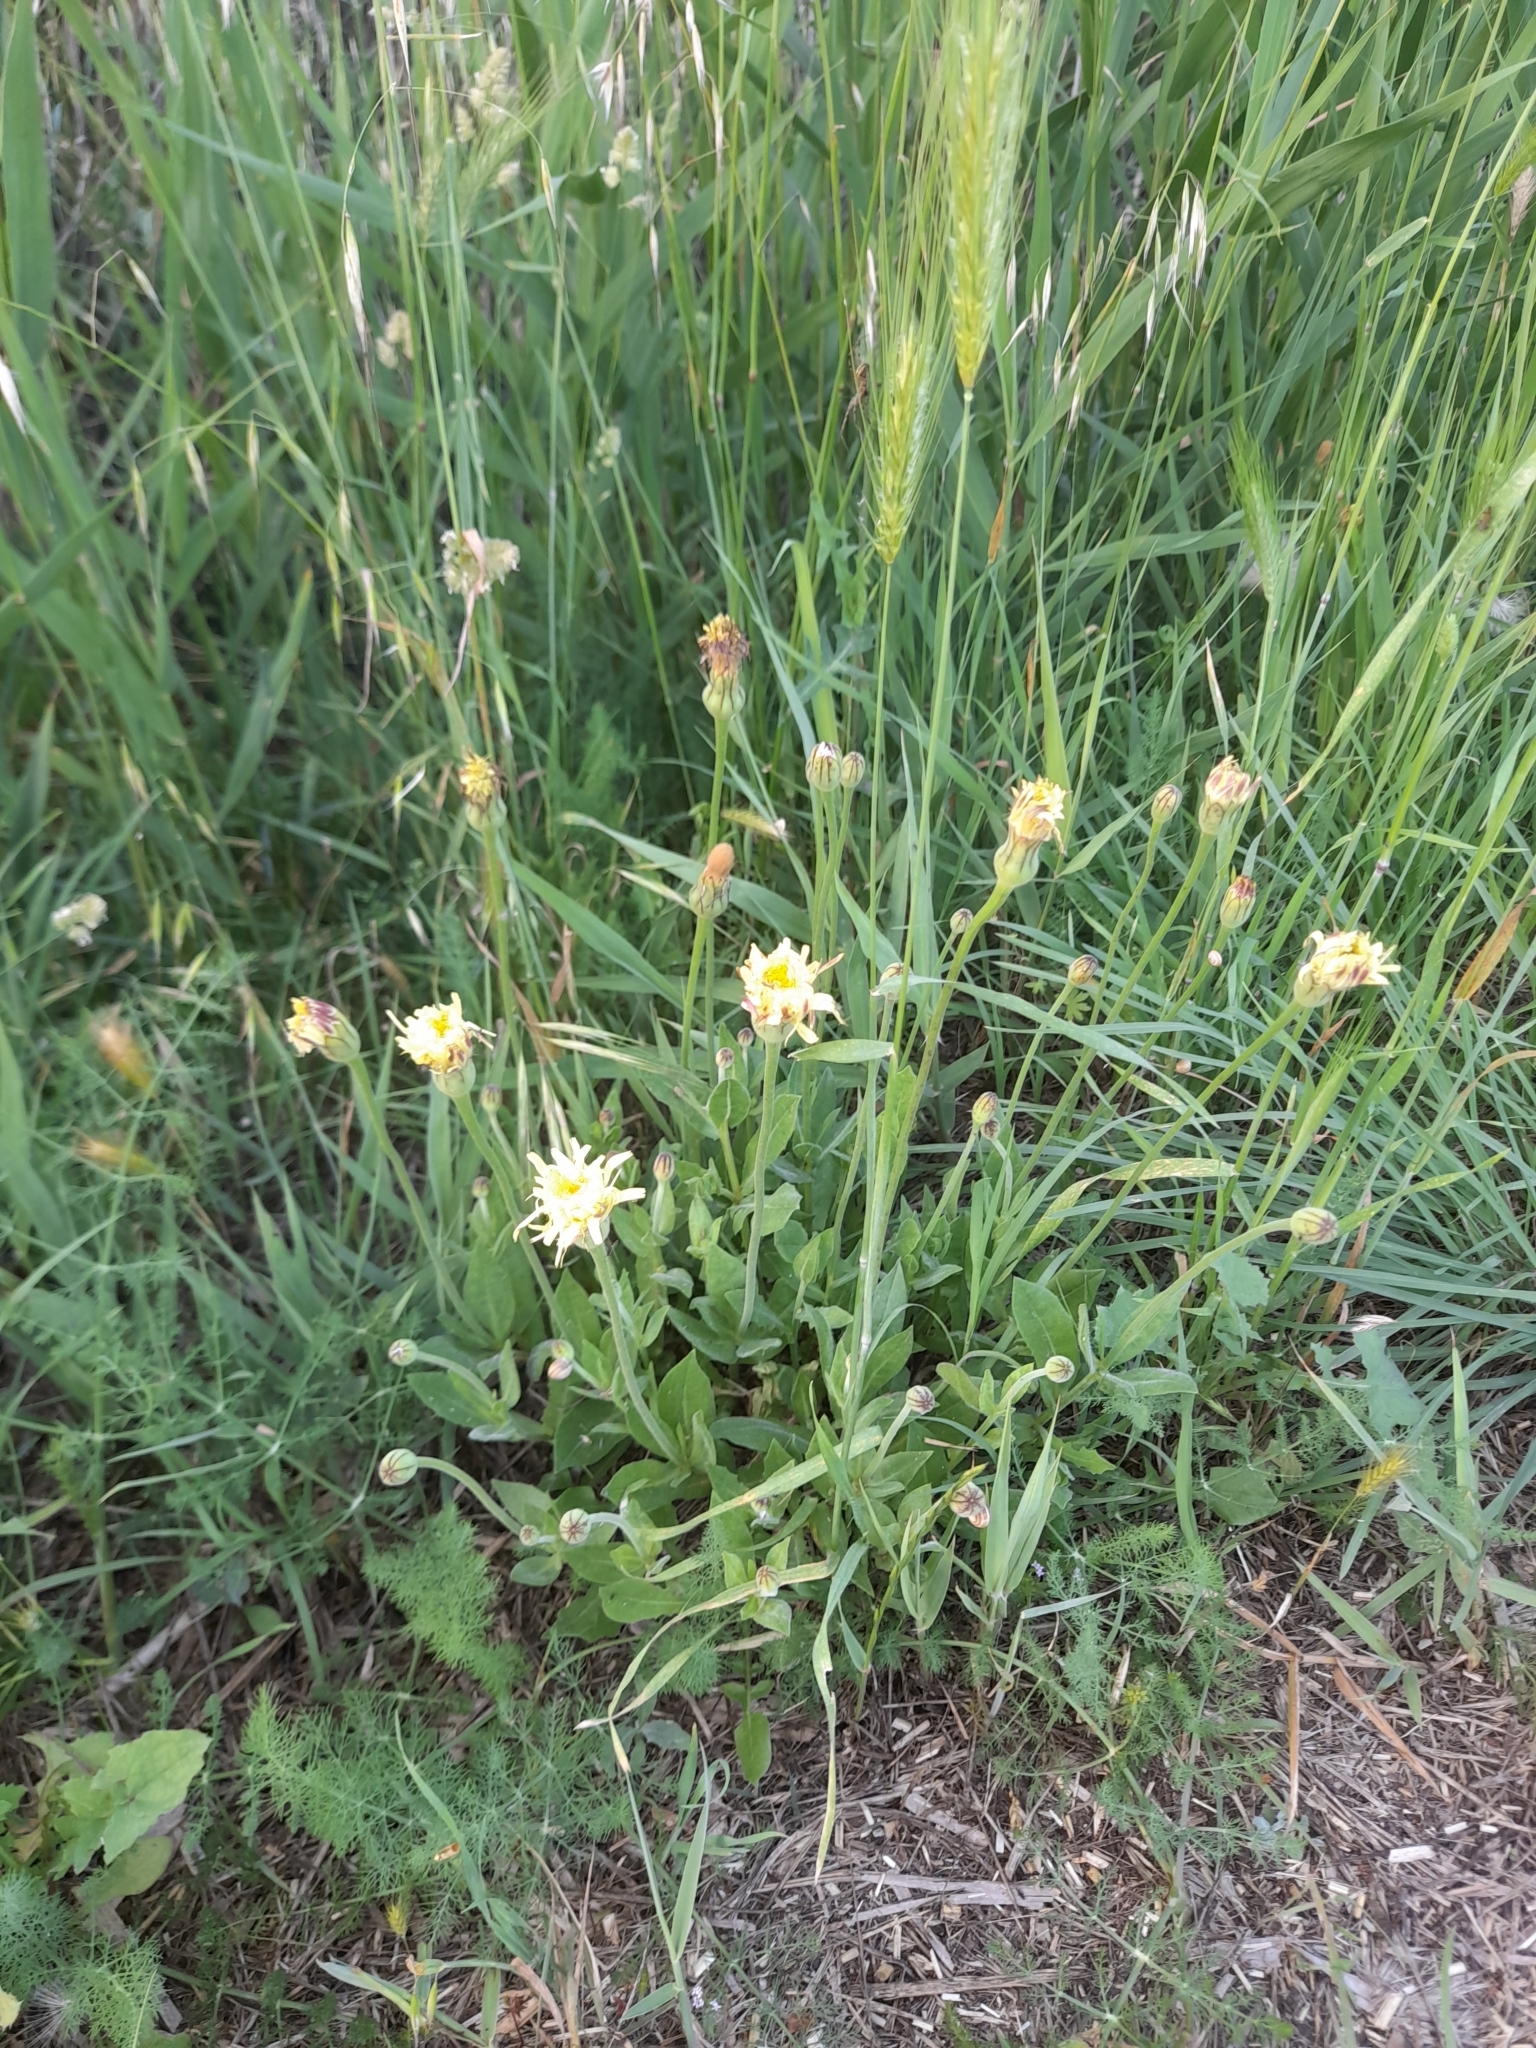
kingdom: Plantae
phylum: Tracheophyta
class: Magnoliopsida
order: Asterales
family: Asteraceae
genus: Urospermum
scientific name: Urospermum dalechampii
